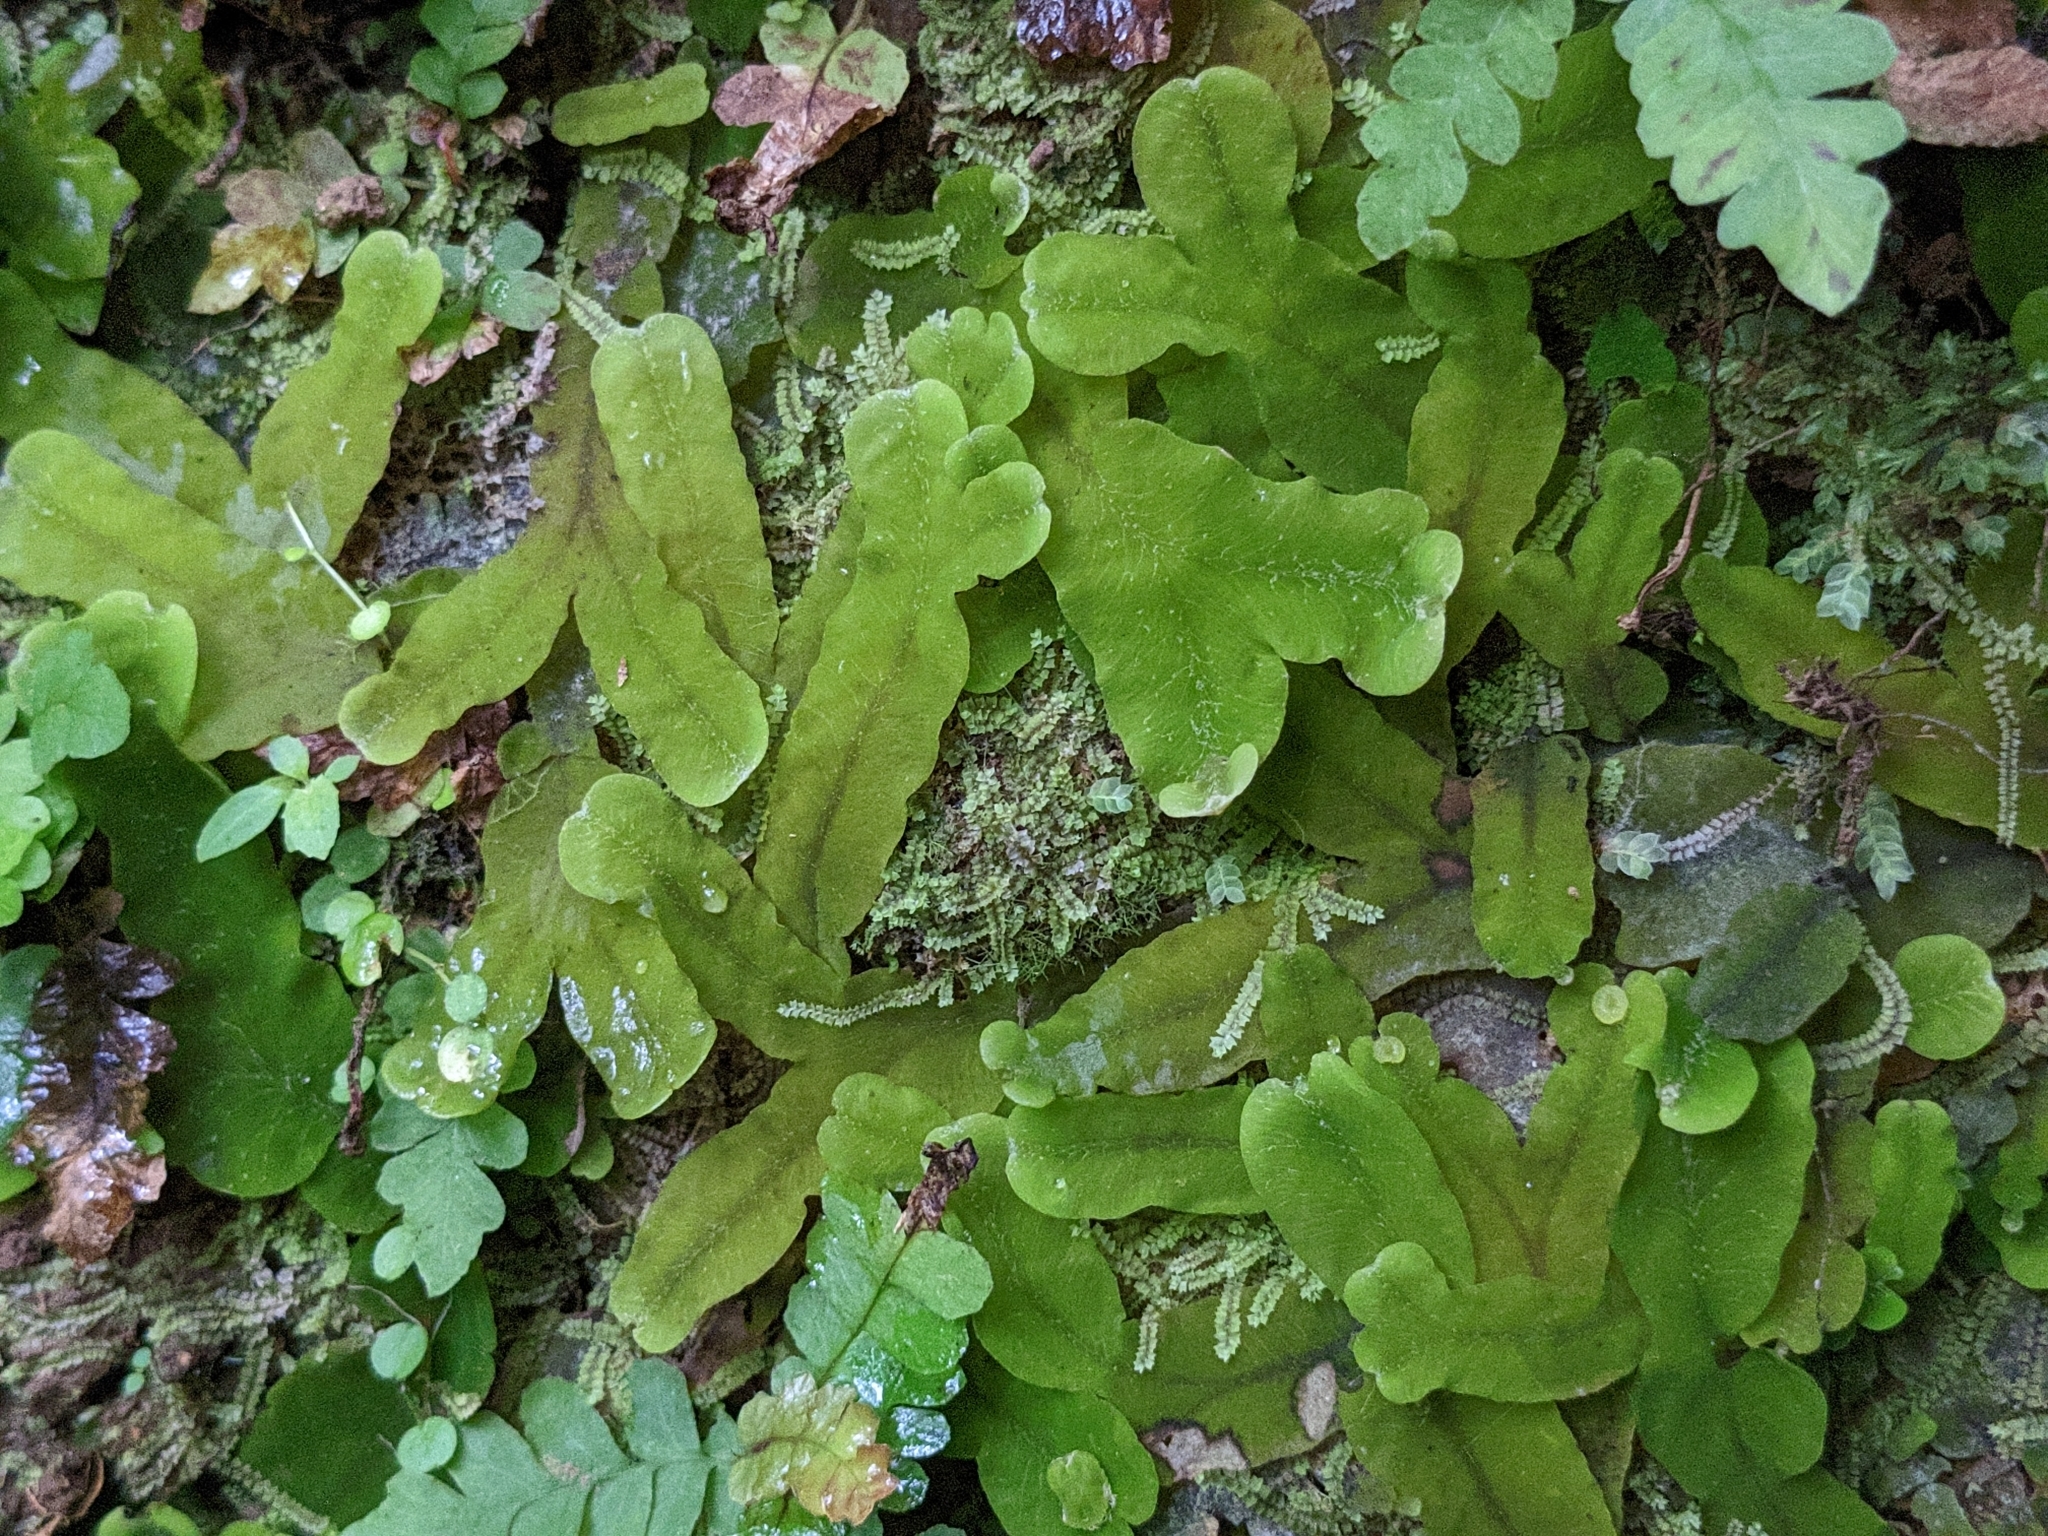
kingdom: Plantae
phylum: Marchantiophyta
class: Marchantiopsida
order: Marchantiales
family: Dumortieraceae
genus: Dumortiera
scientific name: Dumortiera hirsuta
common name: Dumortier's liverwort
